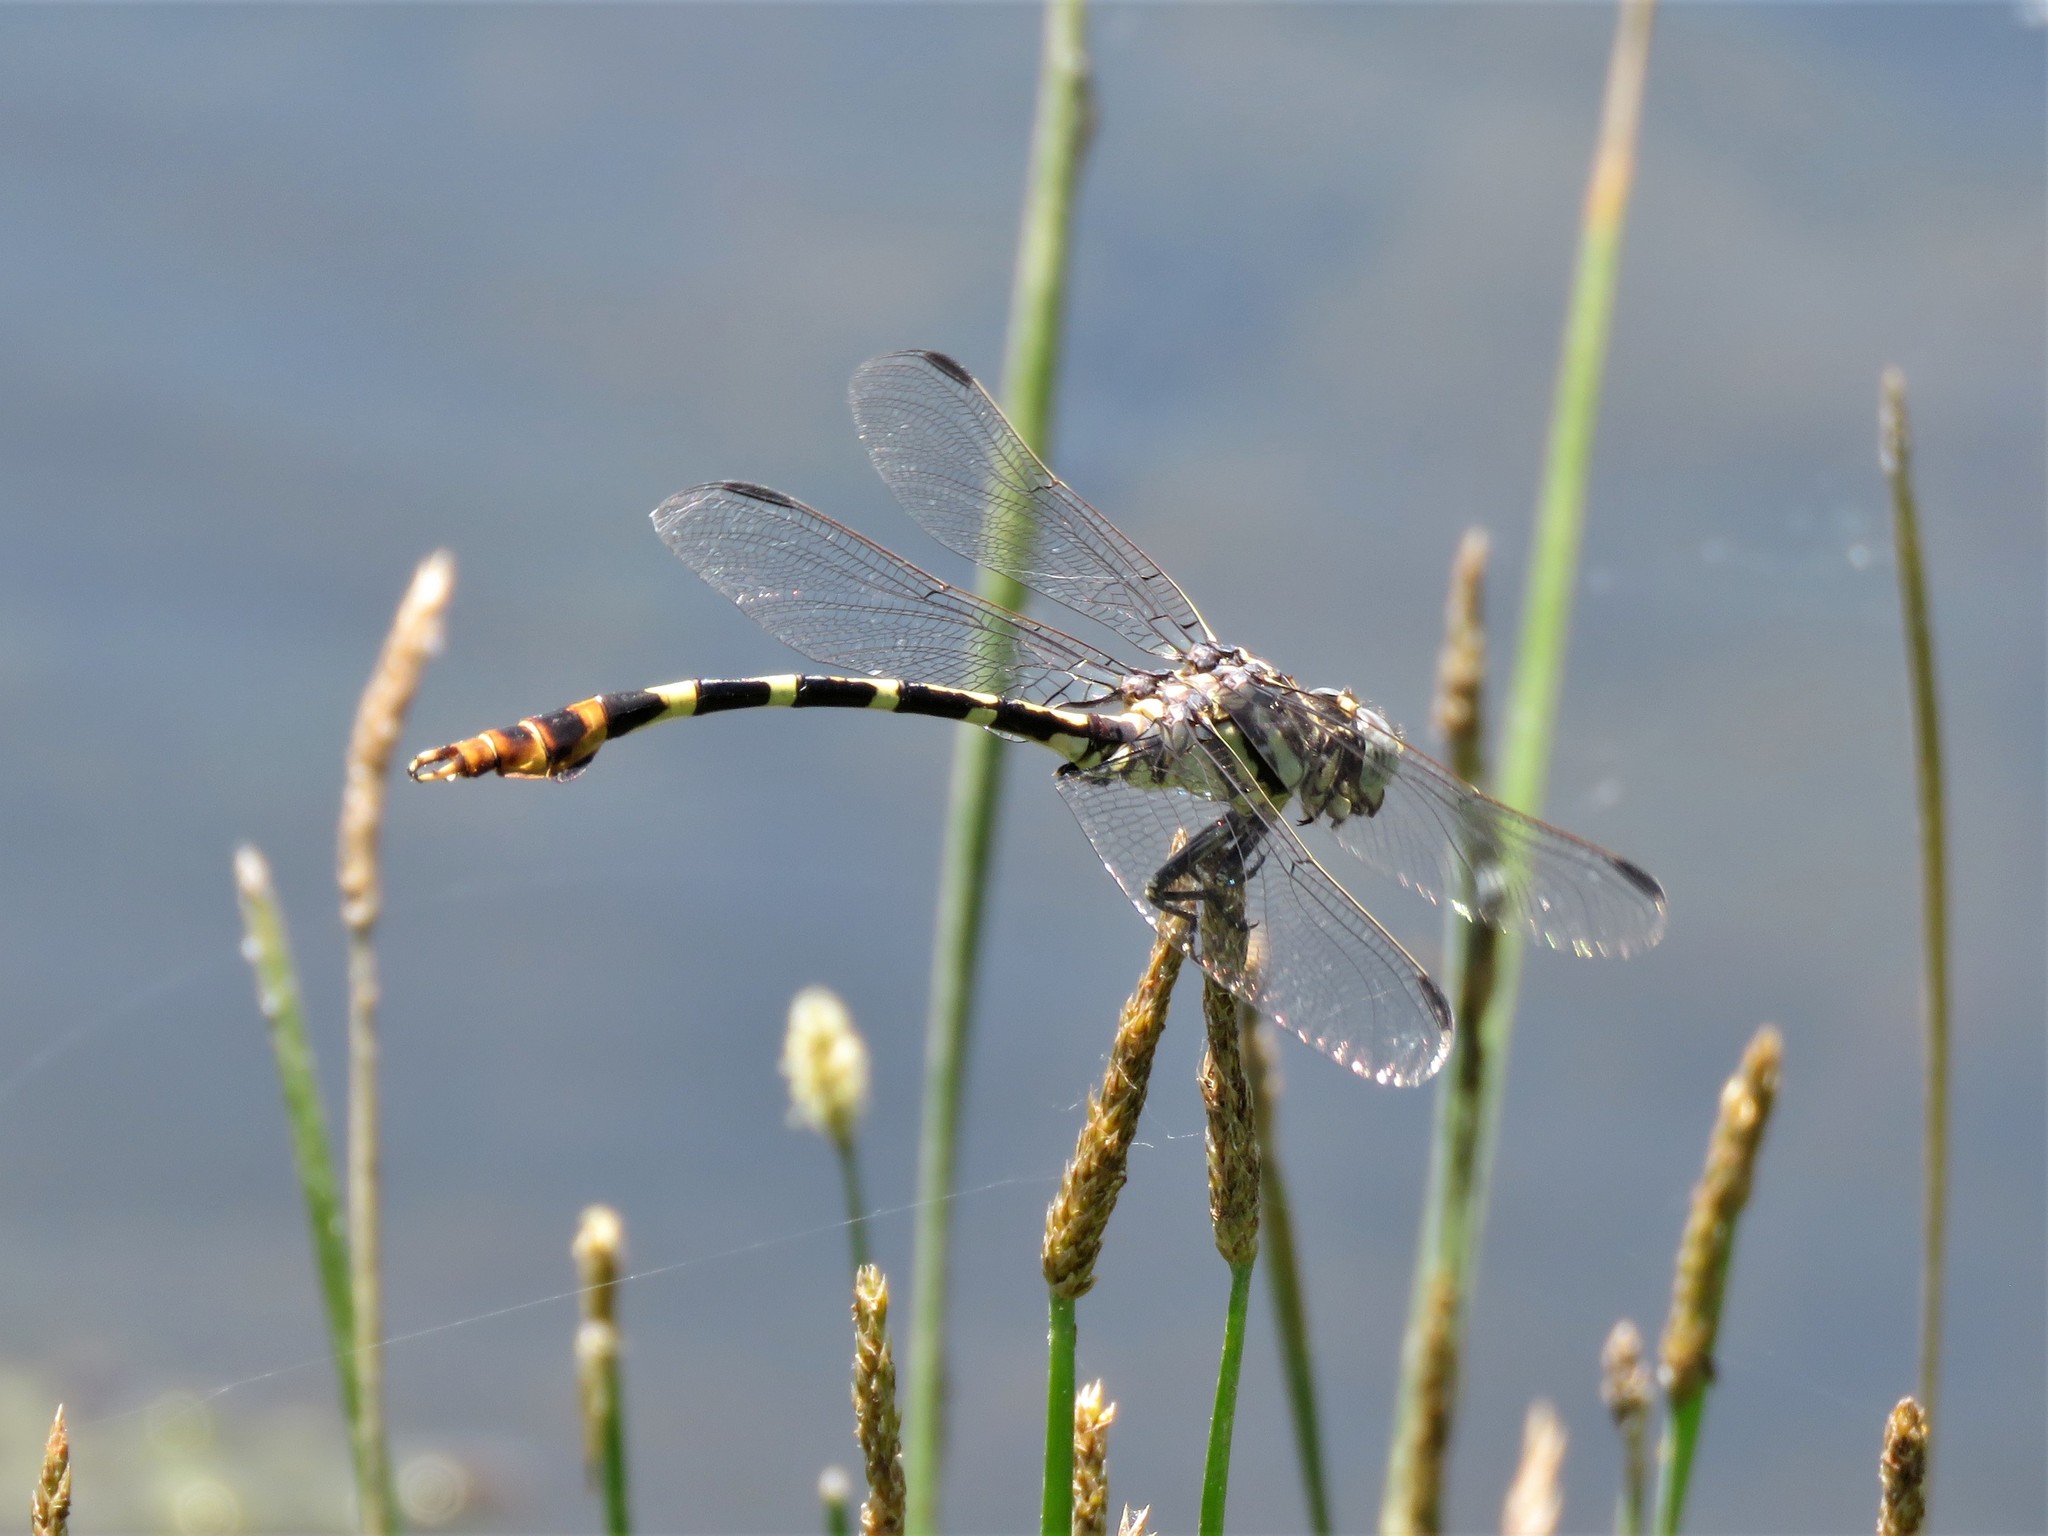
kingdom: Animalia
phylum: Arthropoda
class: Insecta
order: Odonata
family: Gomphidae
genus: Phyllogomphoides
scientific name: Phyllogomphoides stigmatus
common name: Four-striped leaftail
